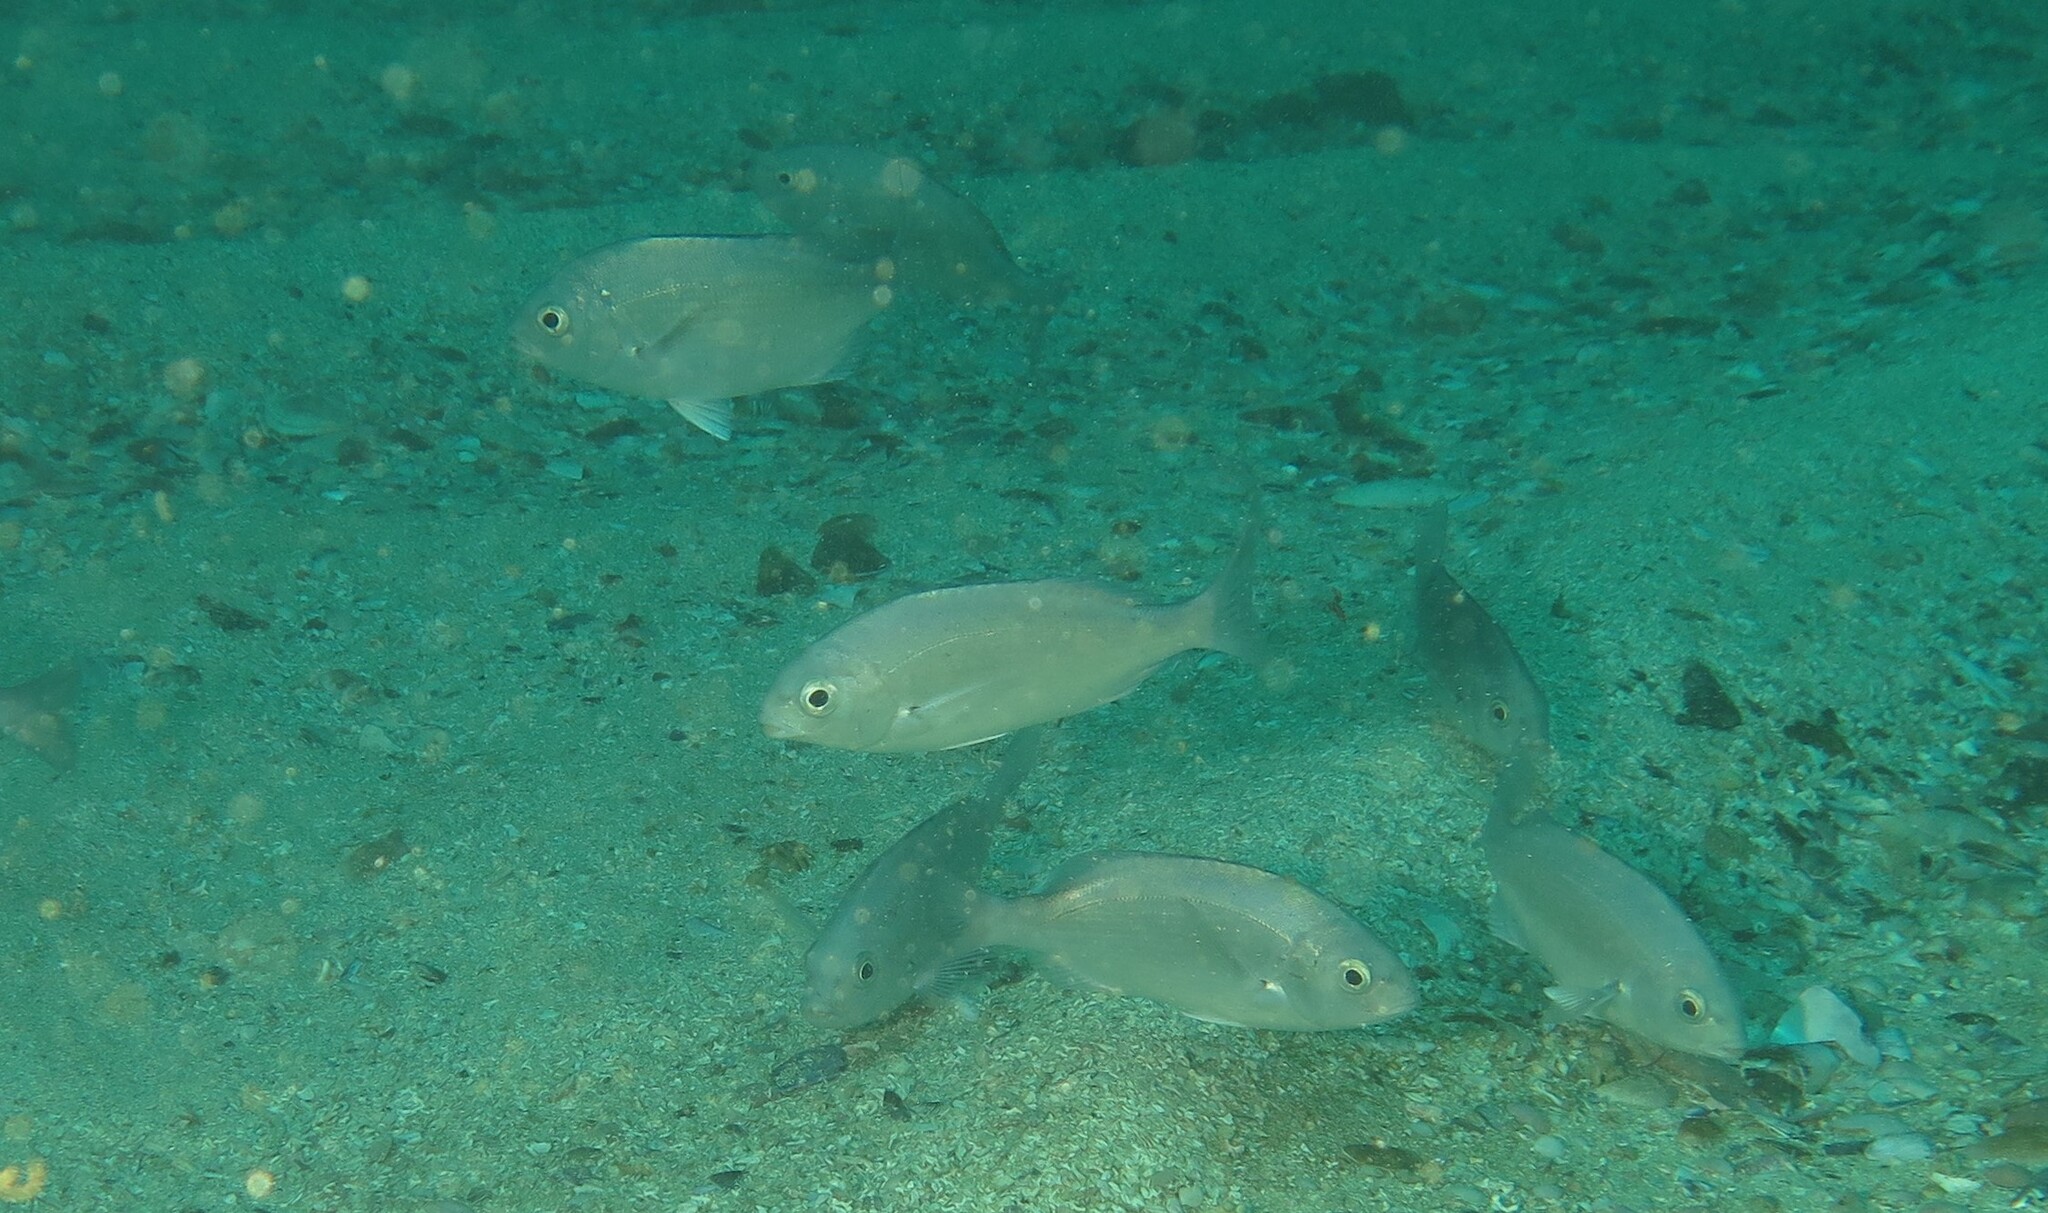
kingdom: Animalia
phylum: Chordata
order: Perciformes
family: Sparidae
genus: Pachymetopon
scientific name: Pachymetopon blochii
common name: Hottentot
